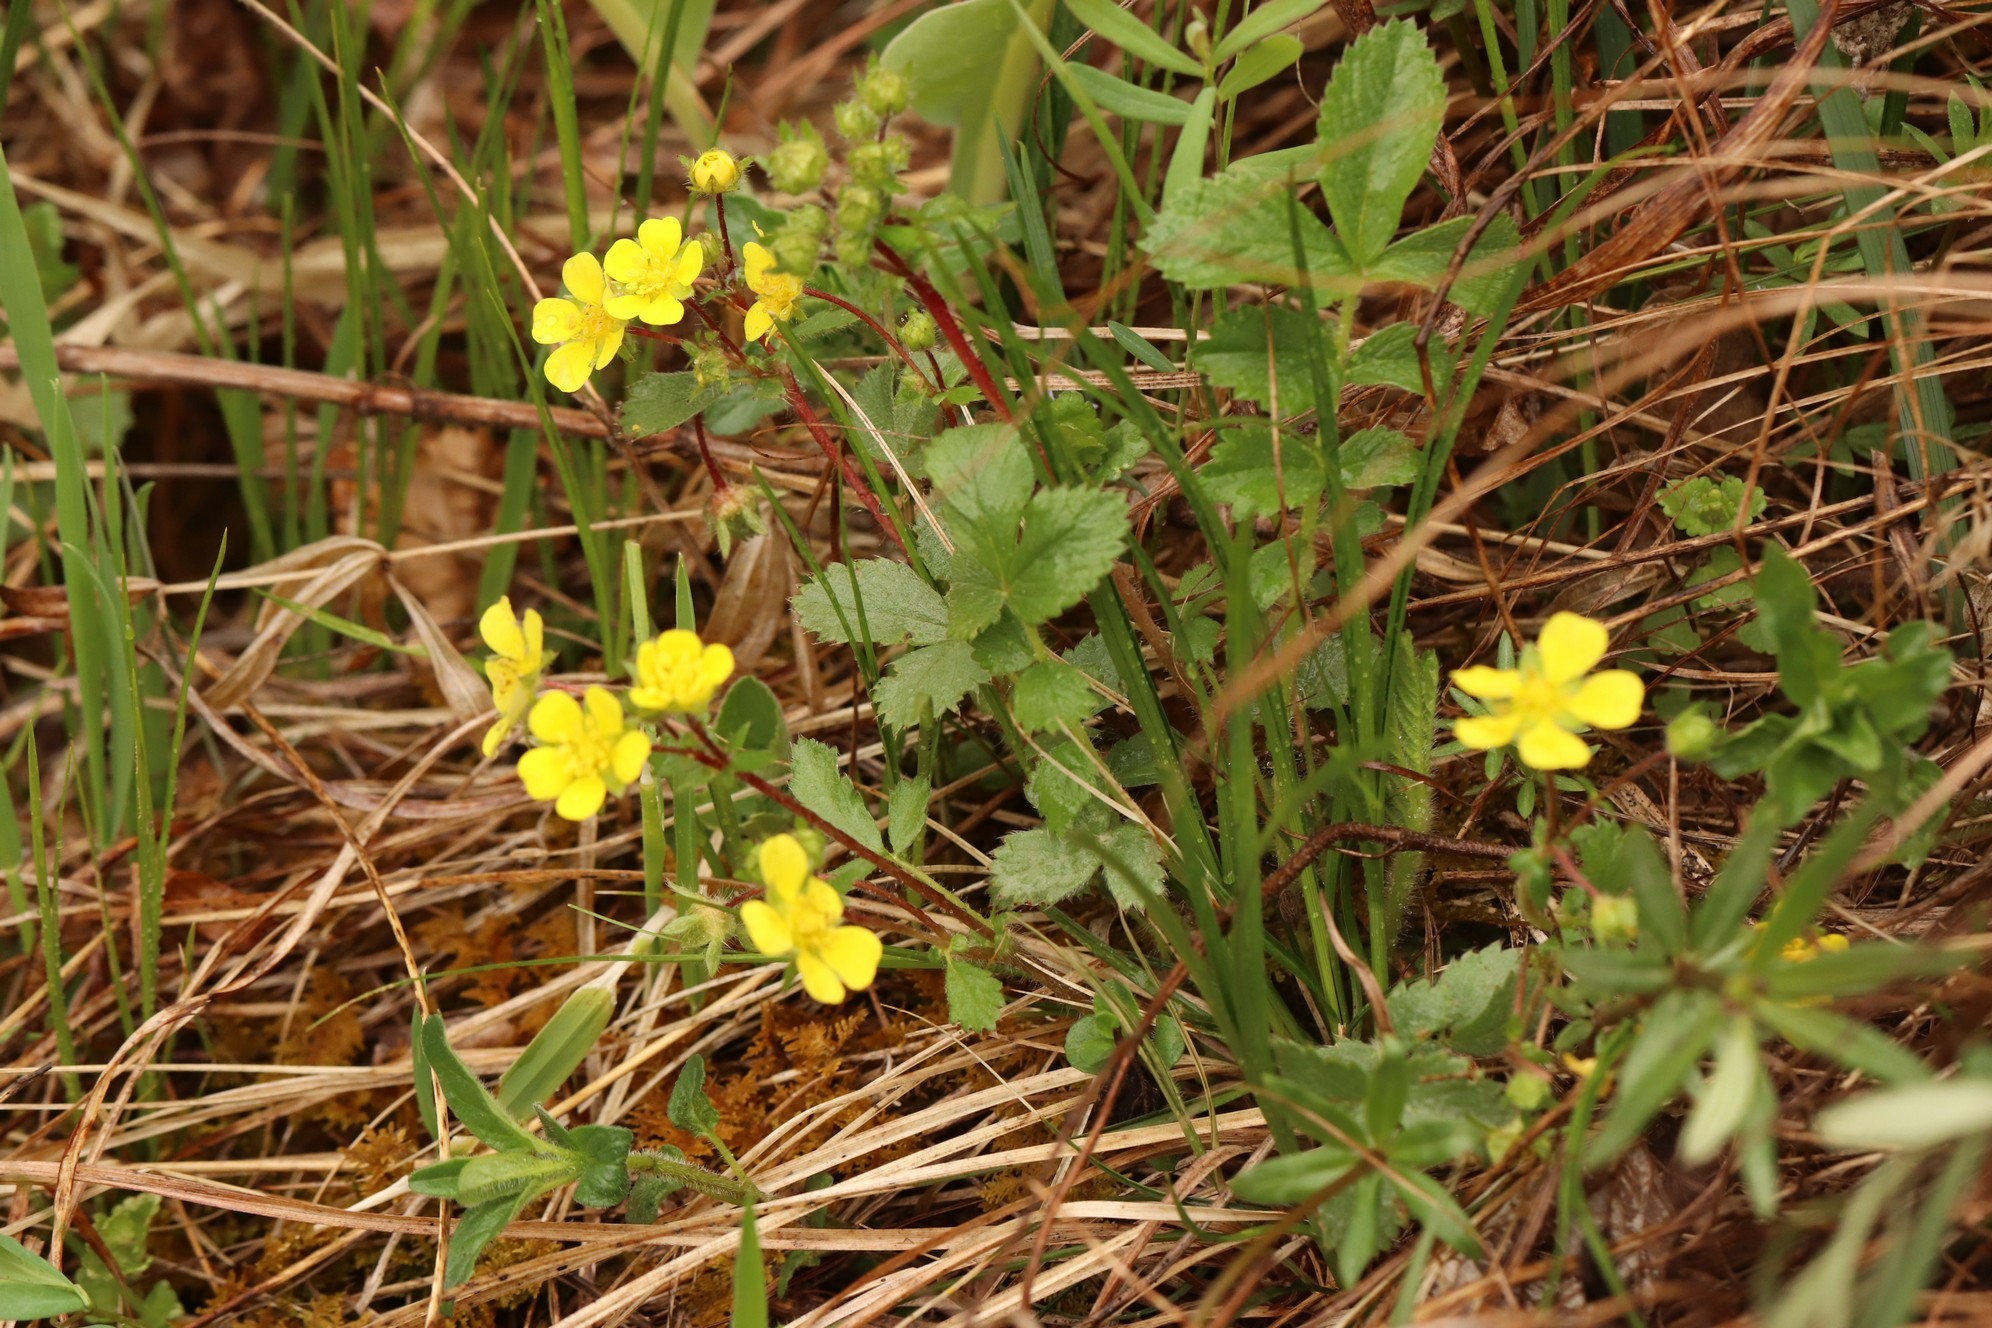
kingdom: Plantae
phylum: Tracheophyta
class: Magnoliopsida
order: Rosales
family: Rosaceae
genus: Potentilla
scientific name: Potentilla fragarioides
